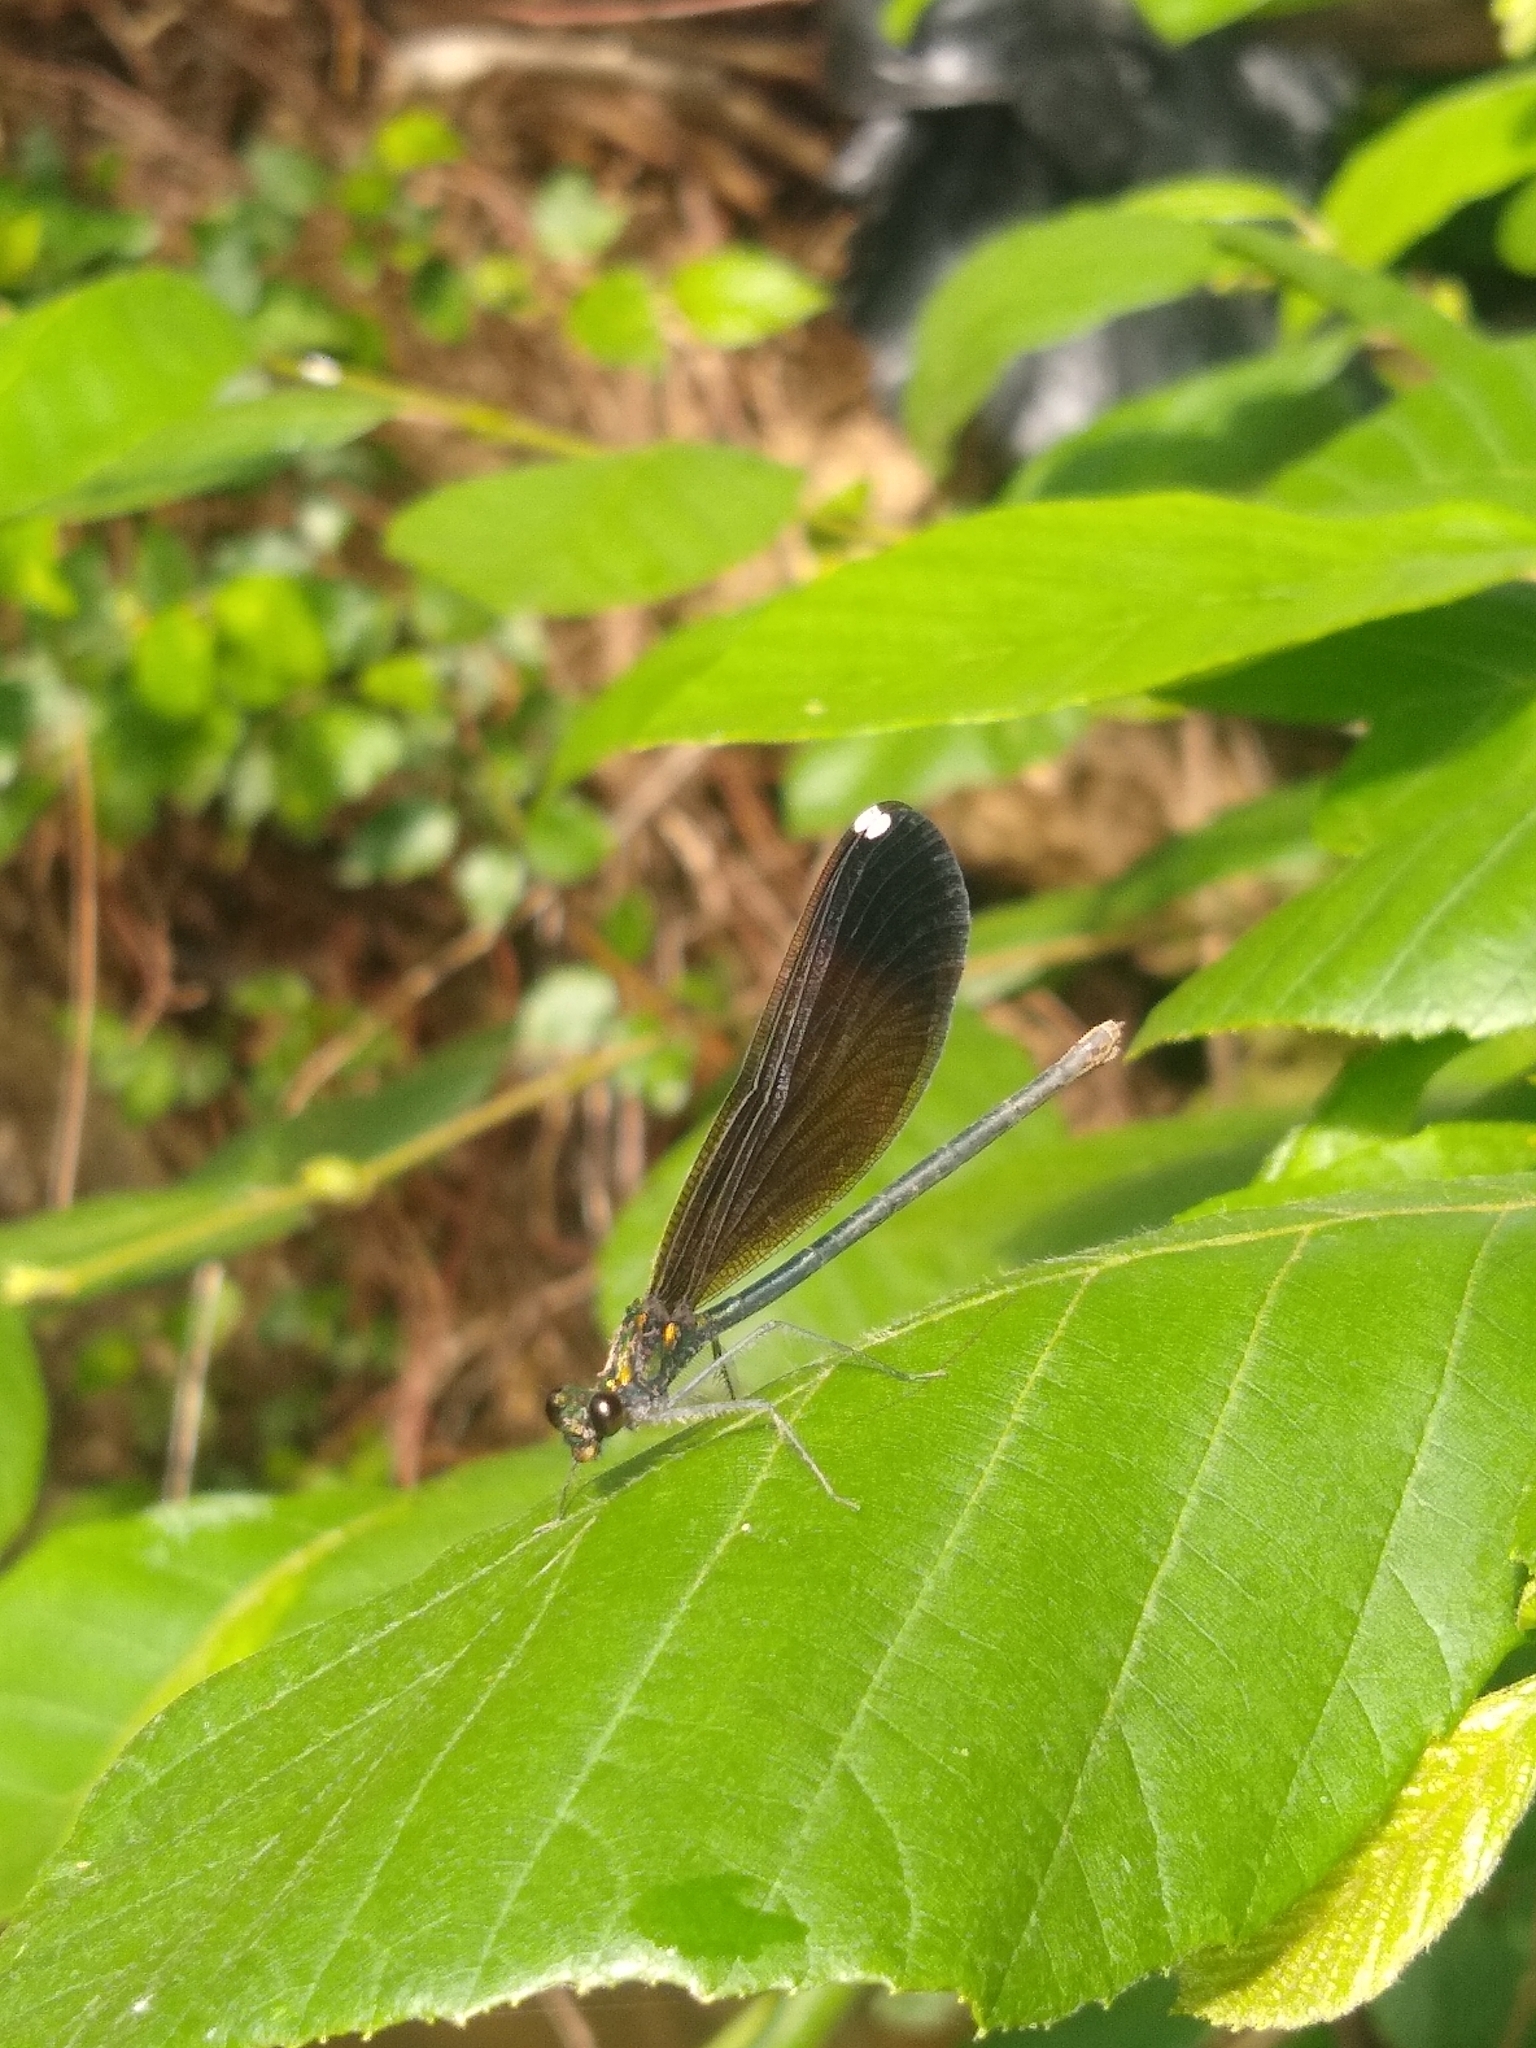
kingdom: Animalia
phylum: Arthropoda
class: Insecta
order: Odonata
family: Calopterygidae
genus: Calopteryx
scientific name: Calopteryx maculata
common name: Ebony jewelwing
